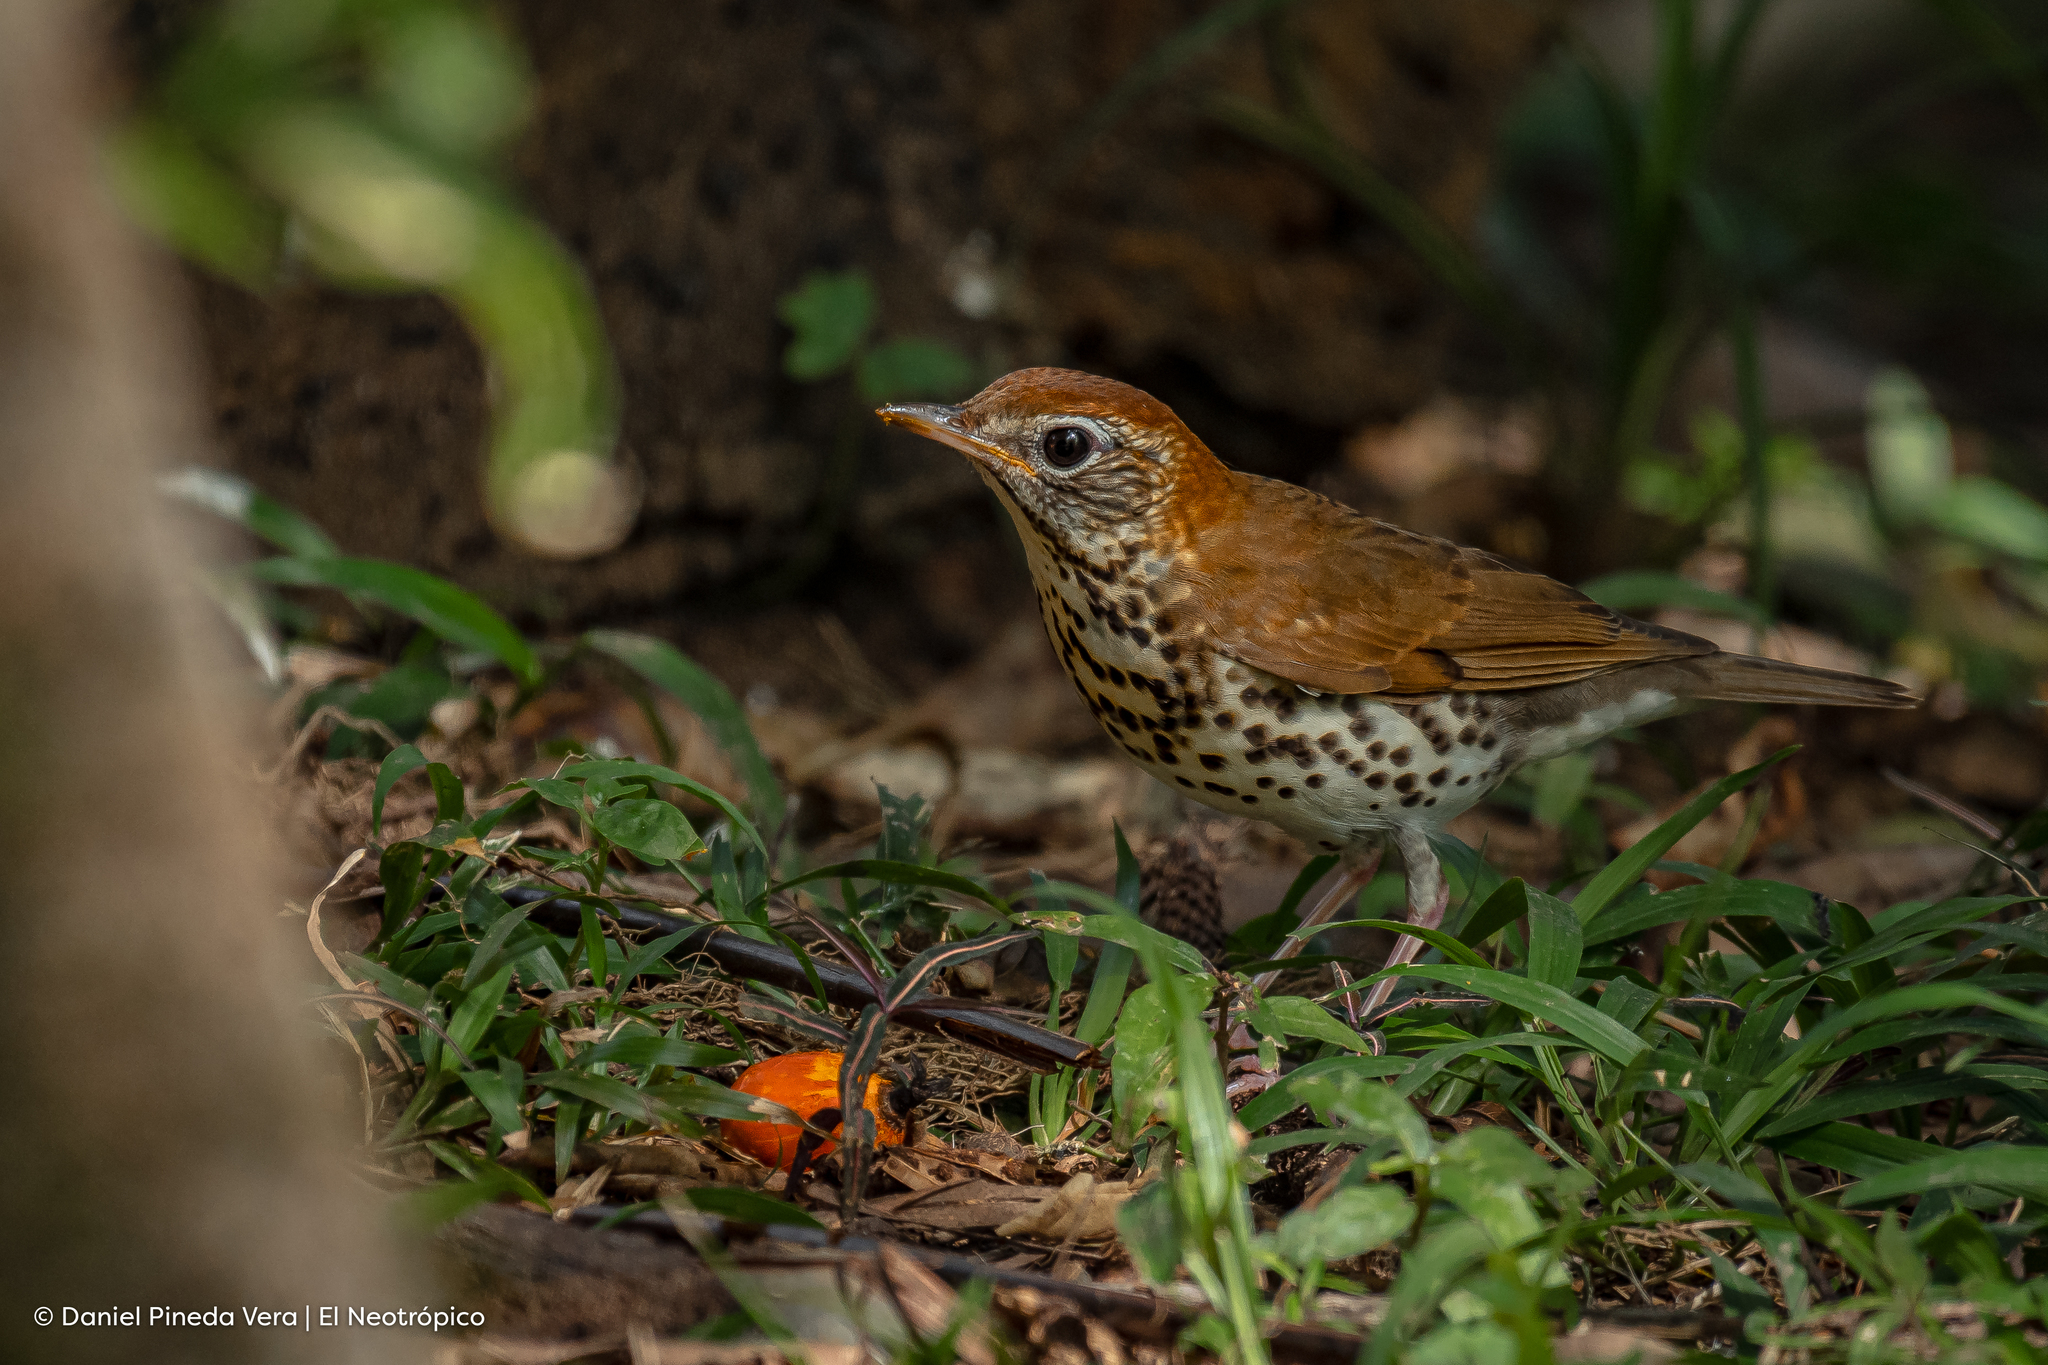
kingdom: Animalia
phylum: Chordata
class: Aves
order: Passeriformes
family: Turdidae
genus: Hylocichla
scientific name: Hylocichla mustelina
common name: Wood thrush
